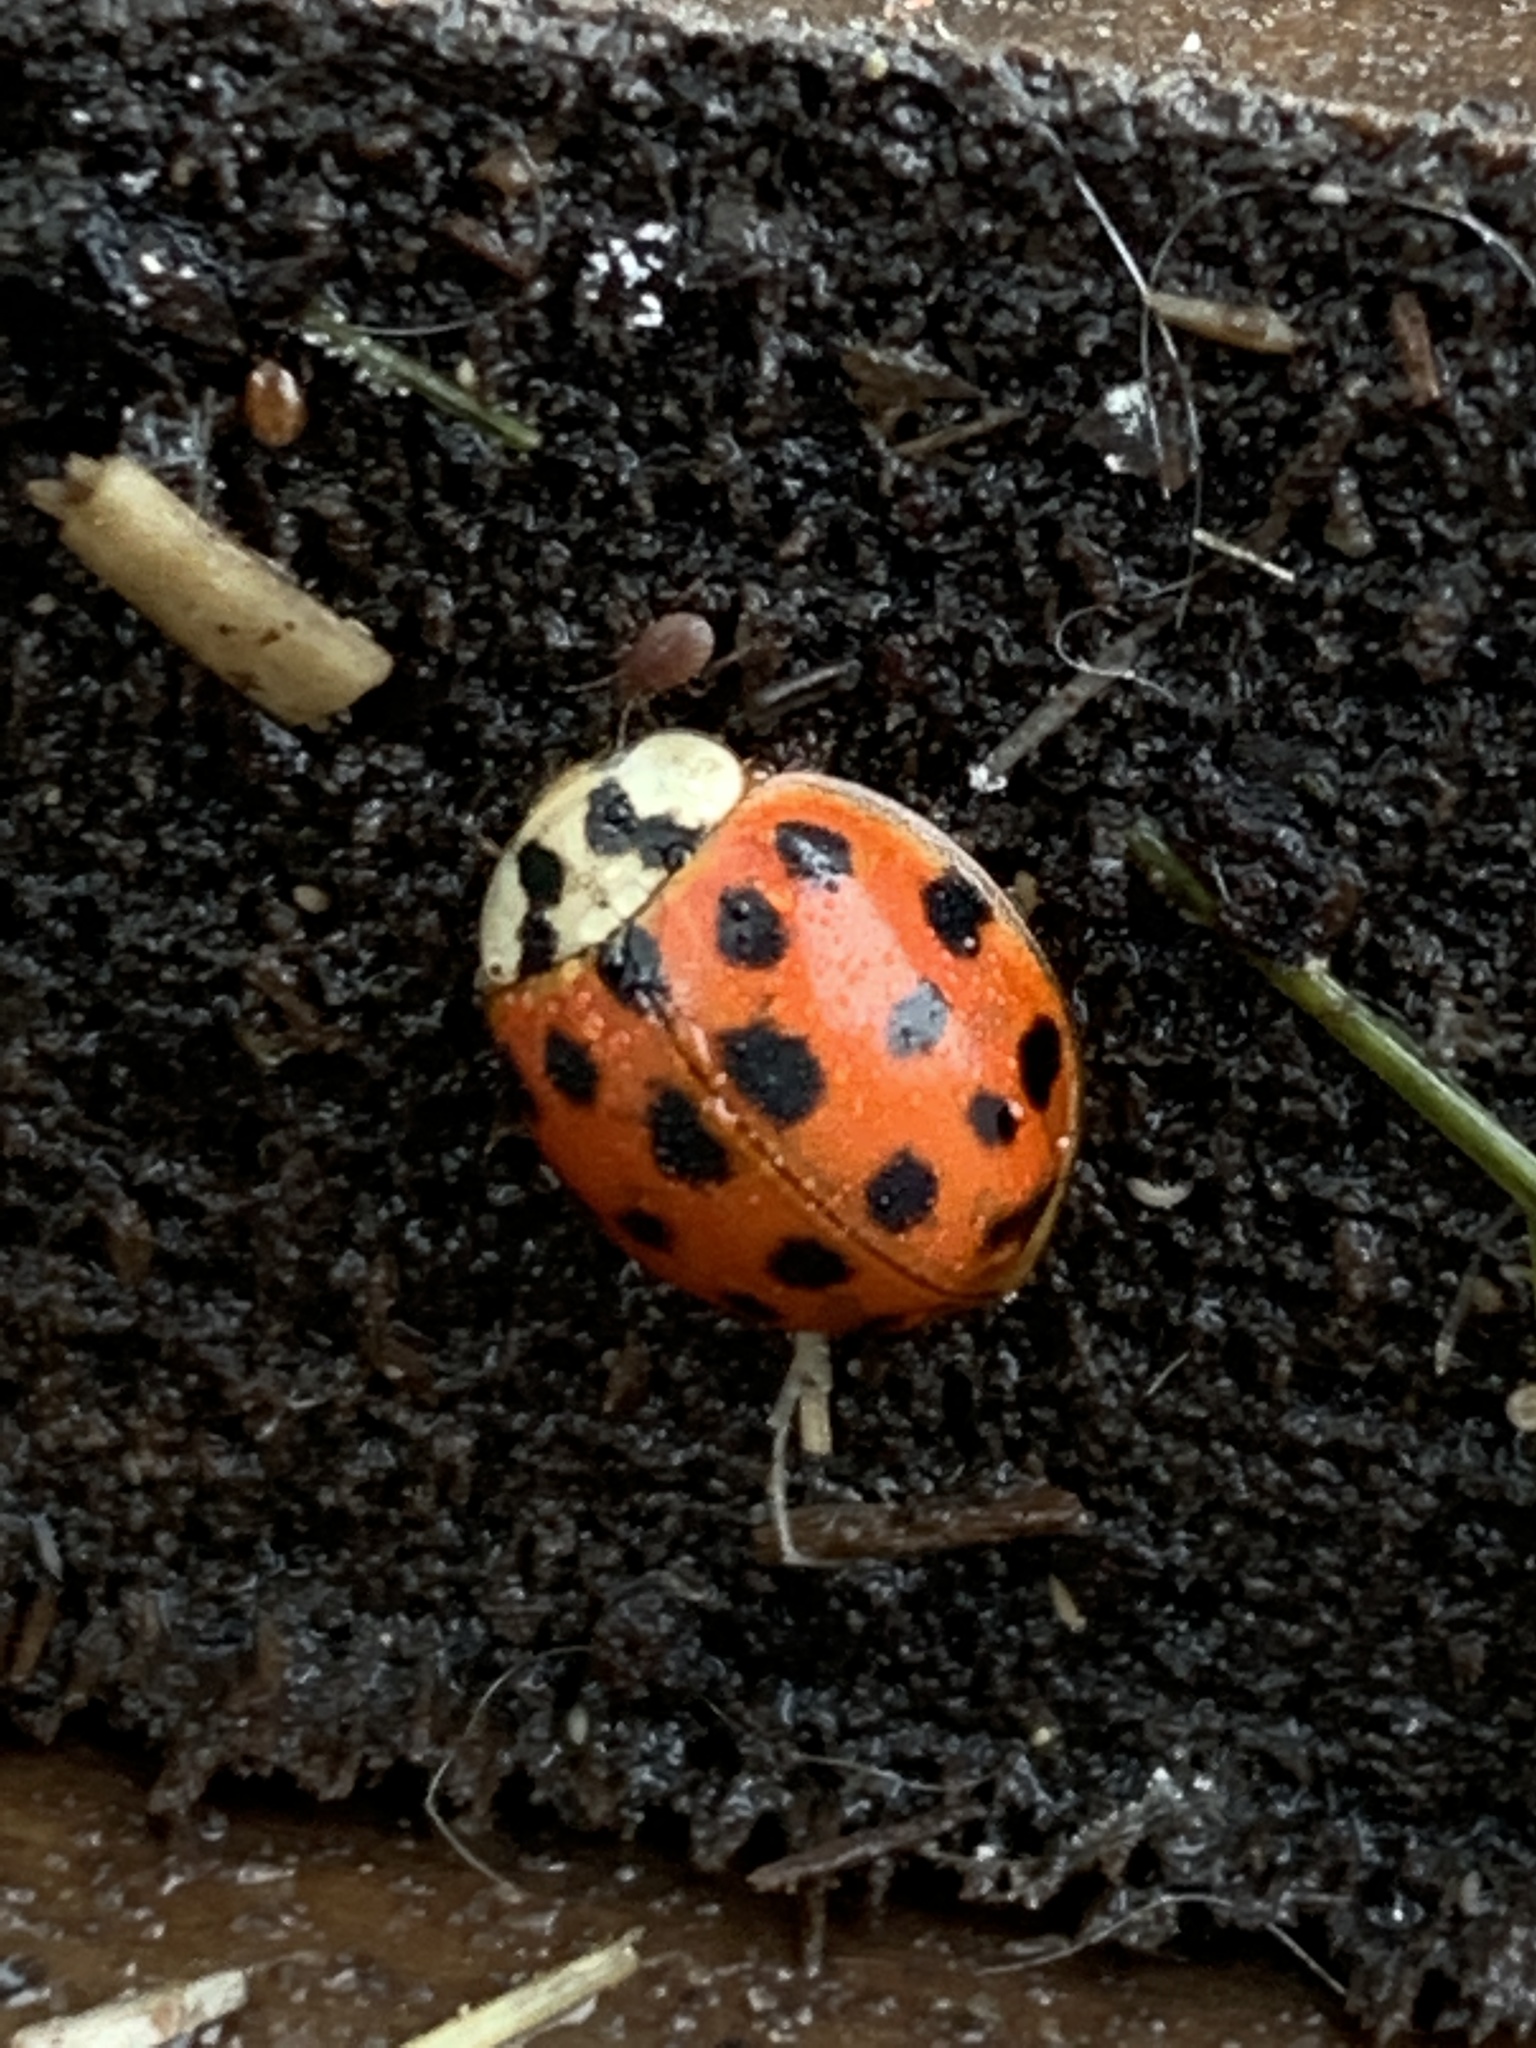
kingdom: Animalia
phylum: Arthropoda
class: Insecta
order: Coleoptera
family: Coccinellidae
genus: Harmonia
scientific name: Harmonia axyridis
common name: Harlequin ladybird
